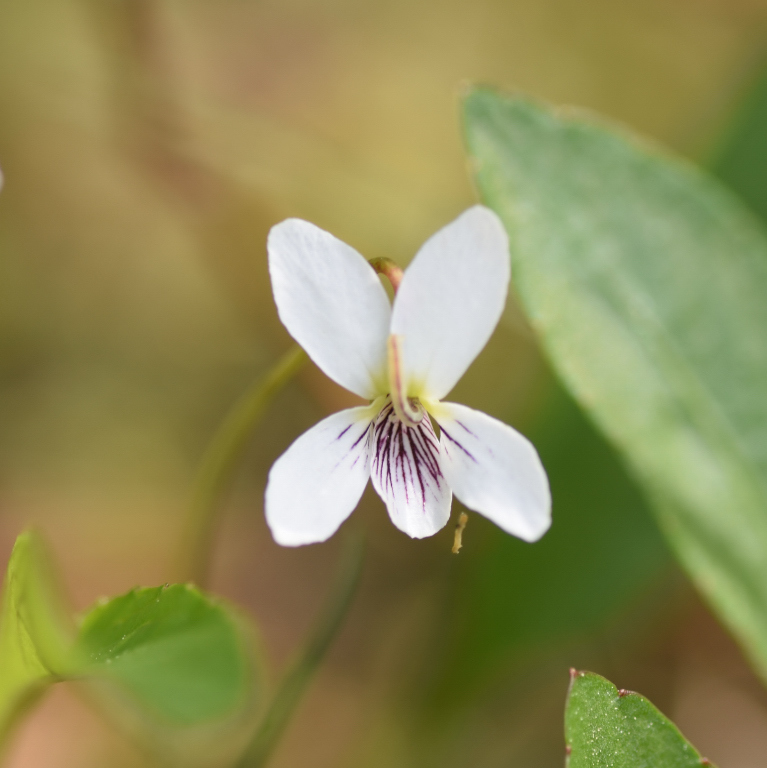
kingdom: Plantae
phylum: Tracheophyta
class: Magnoliopsida
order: Malpighiales
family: Violaceae
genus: Viola
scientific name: Viola lanceolata
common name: Bog white violet
